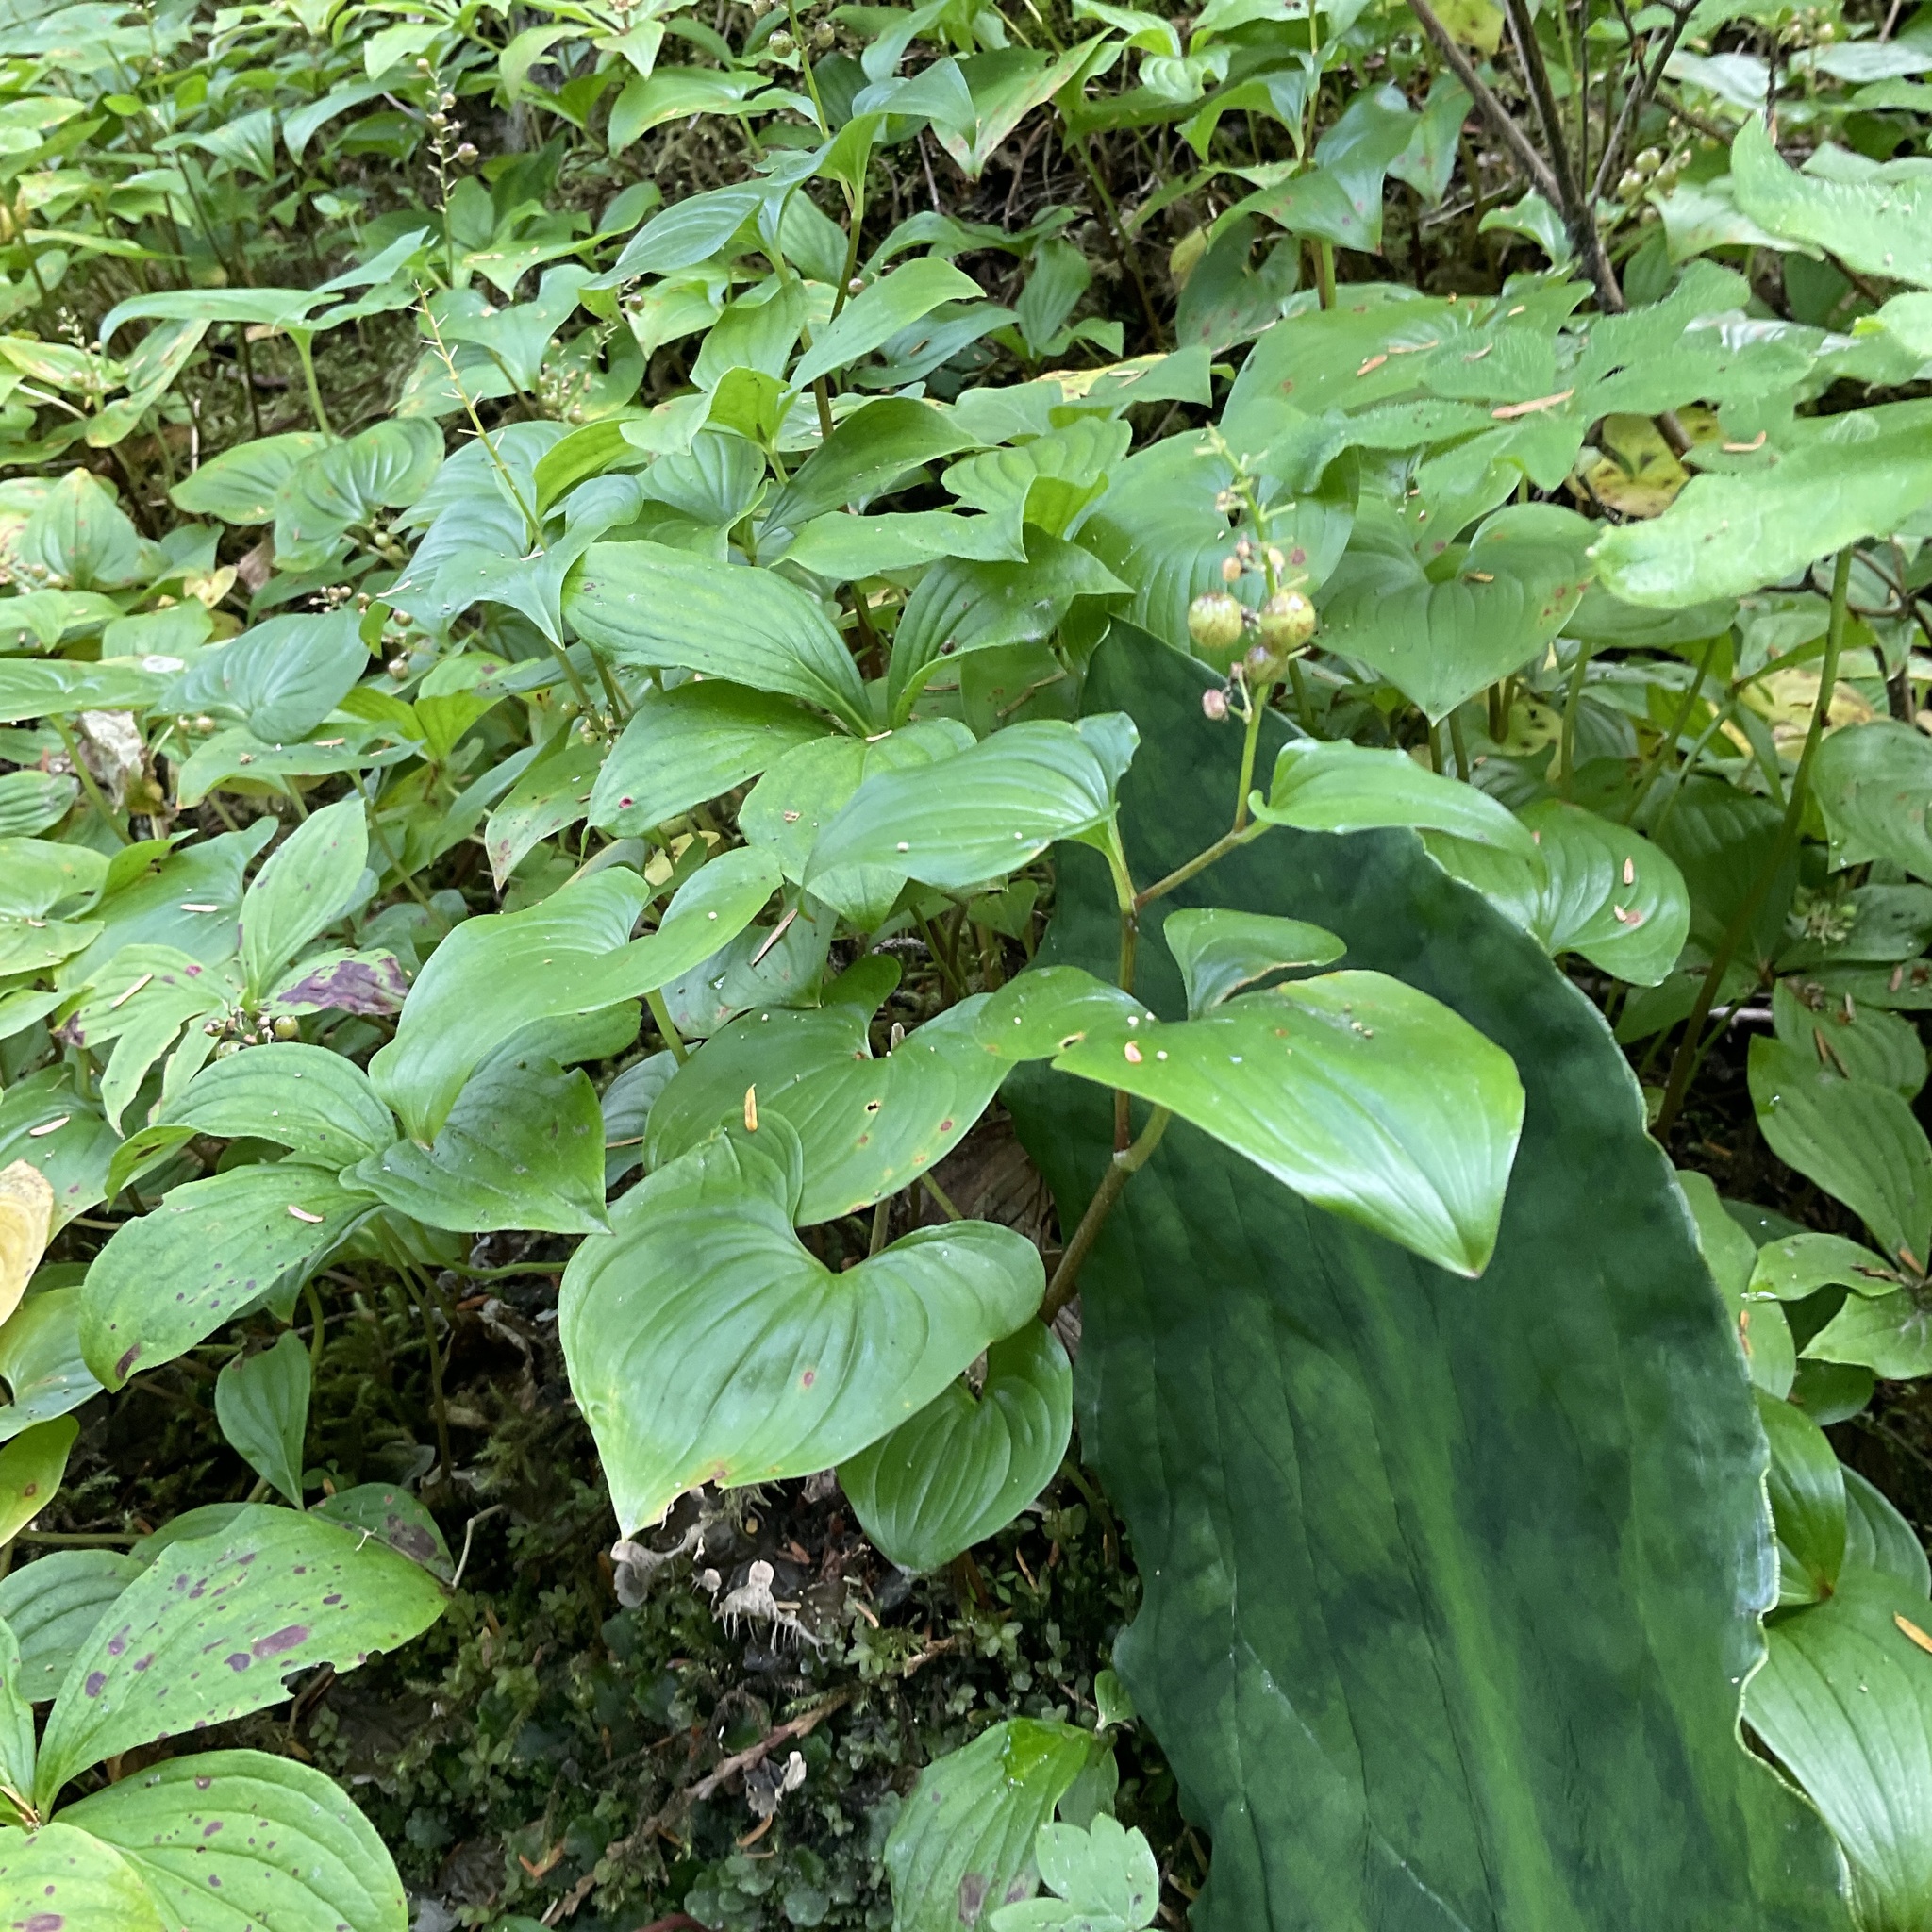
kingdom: Plantae
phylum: Tracheophyta
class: Liliopsida
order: Asparagales
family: Asparagaceae
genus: Maianthemum
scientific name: Maianthemum dilatatum
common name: False lily-of-the-valley
